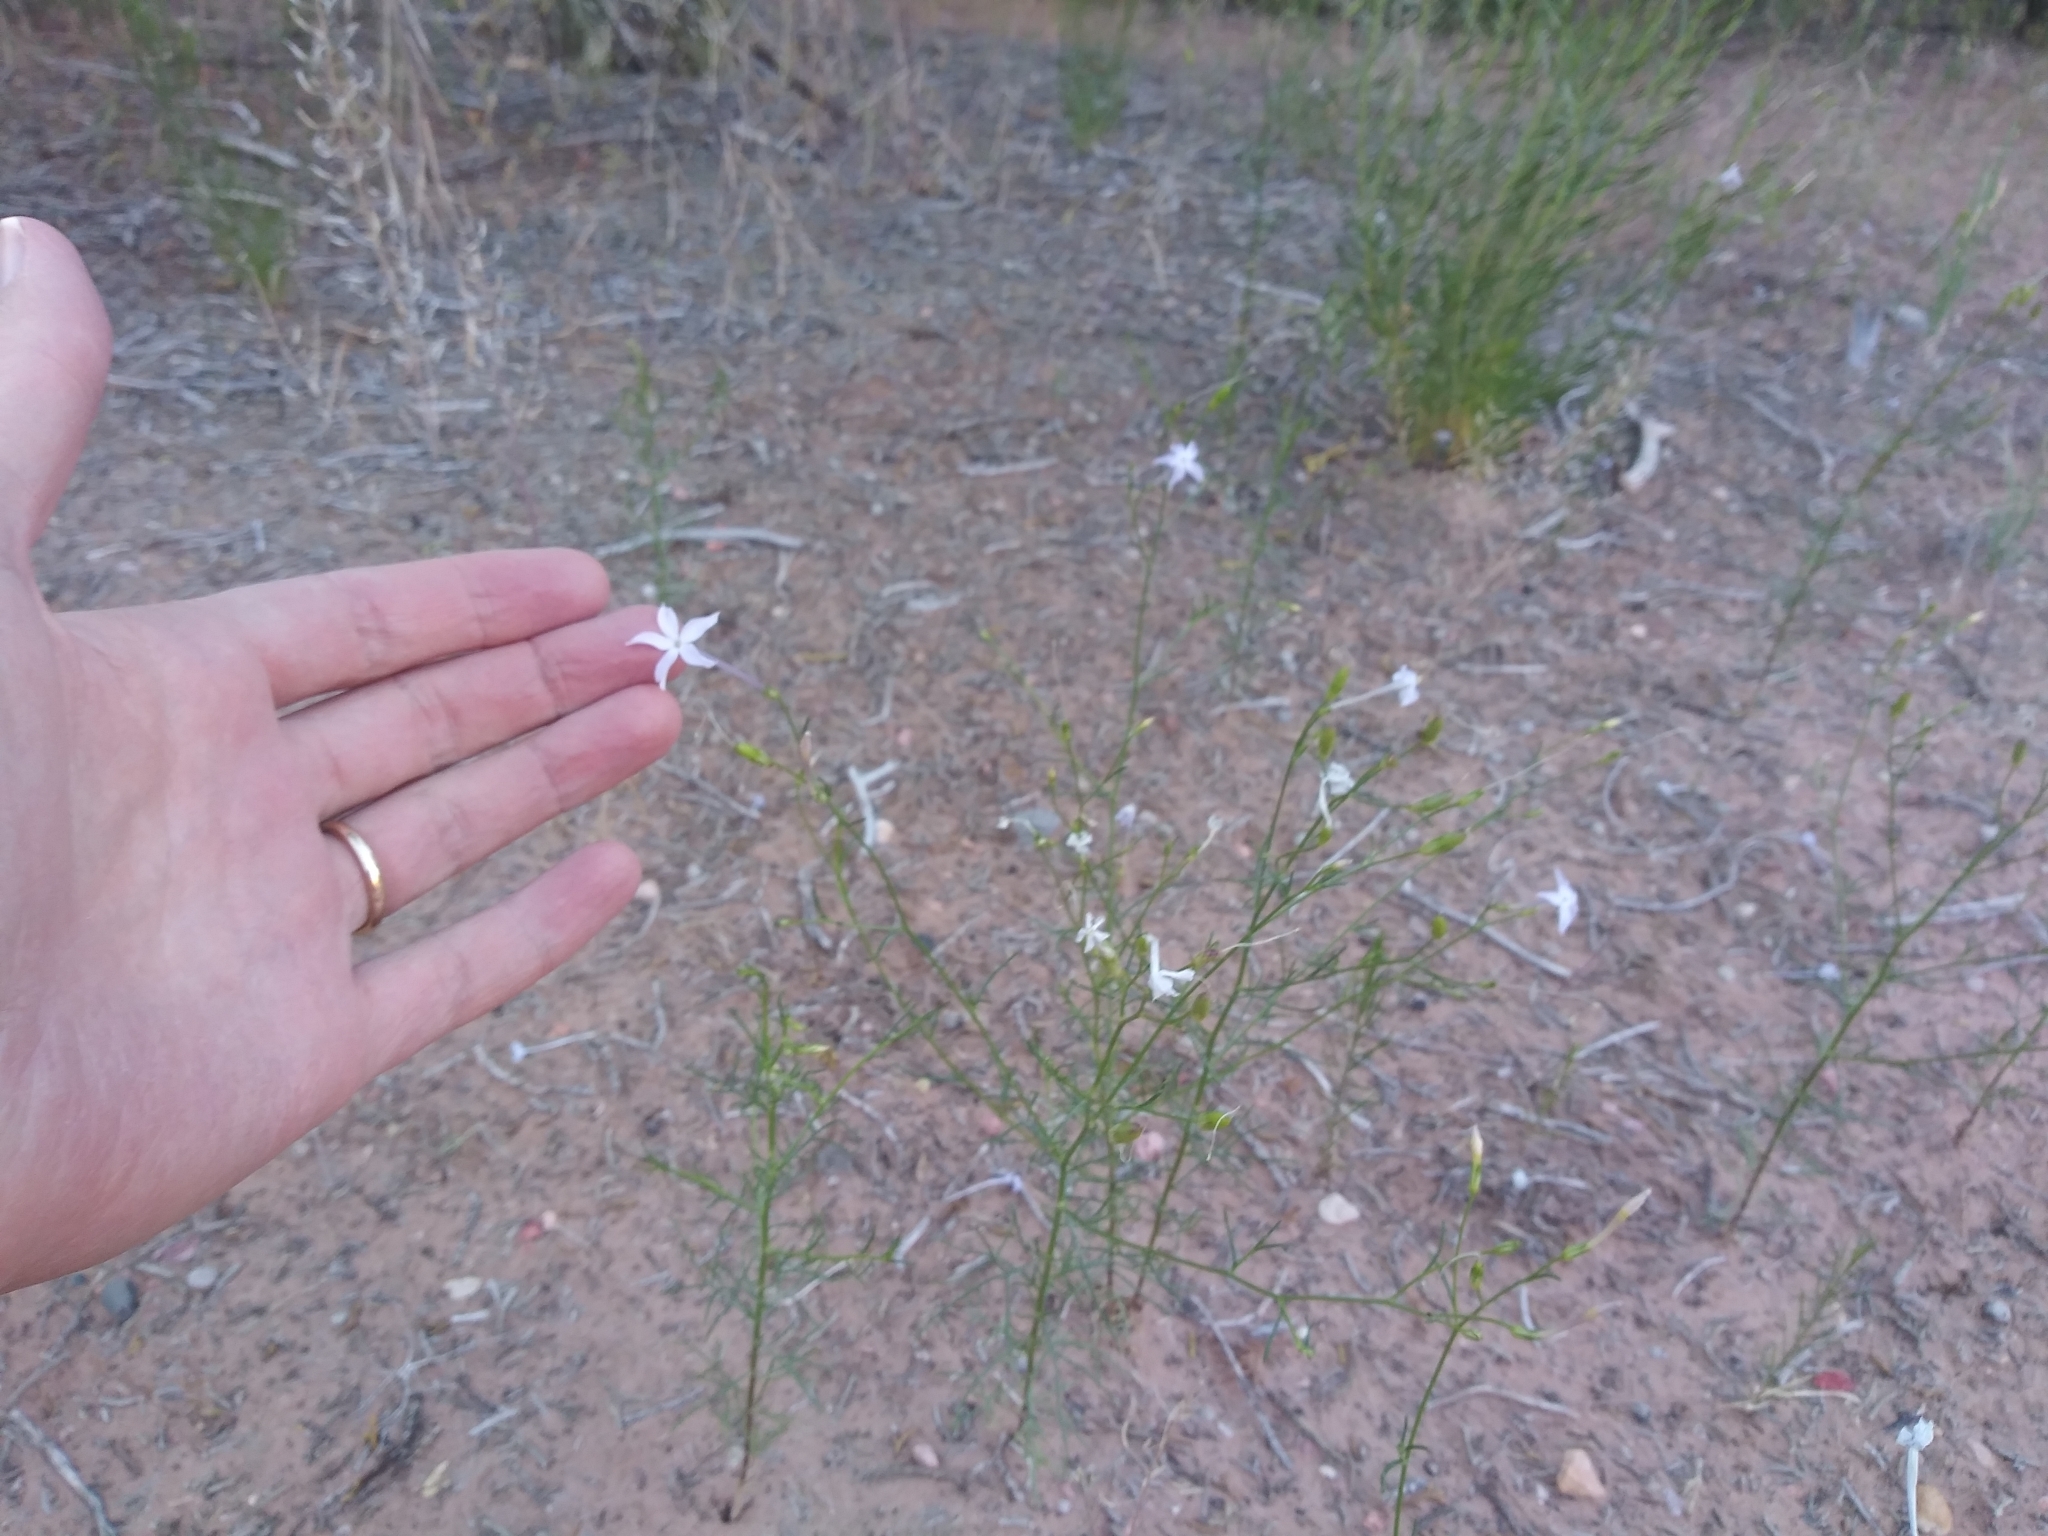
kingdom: Plantae
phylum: Tracheophyta
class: Magnoliopsida
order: Ericales
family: Polemoniaceae
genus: Ipomopsis
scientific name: Ipomopsis longiflora
